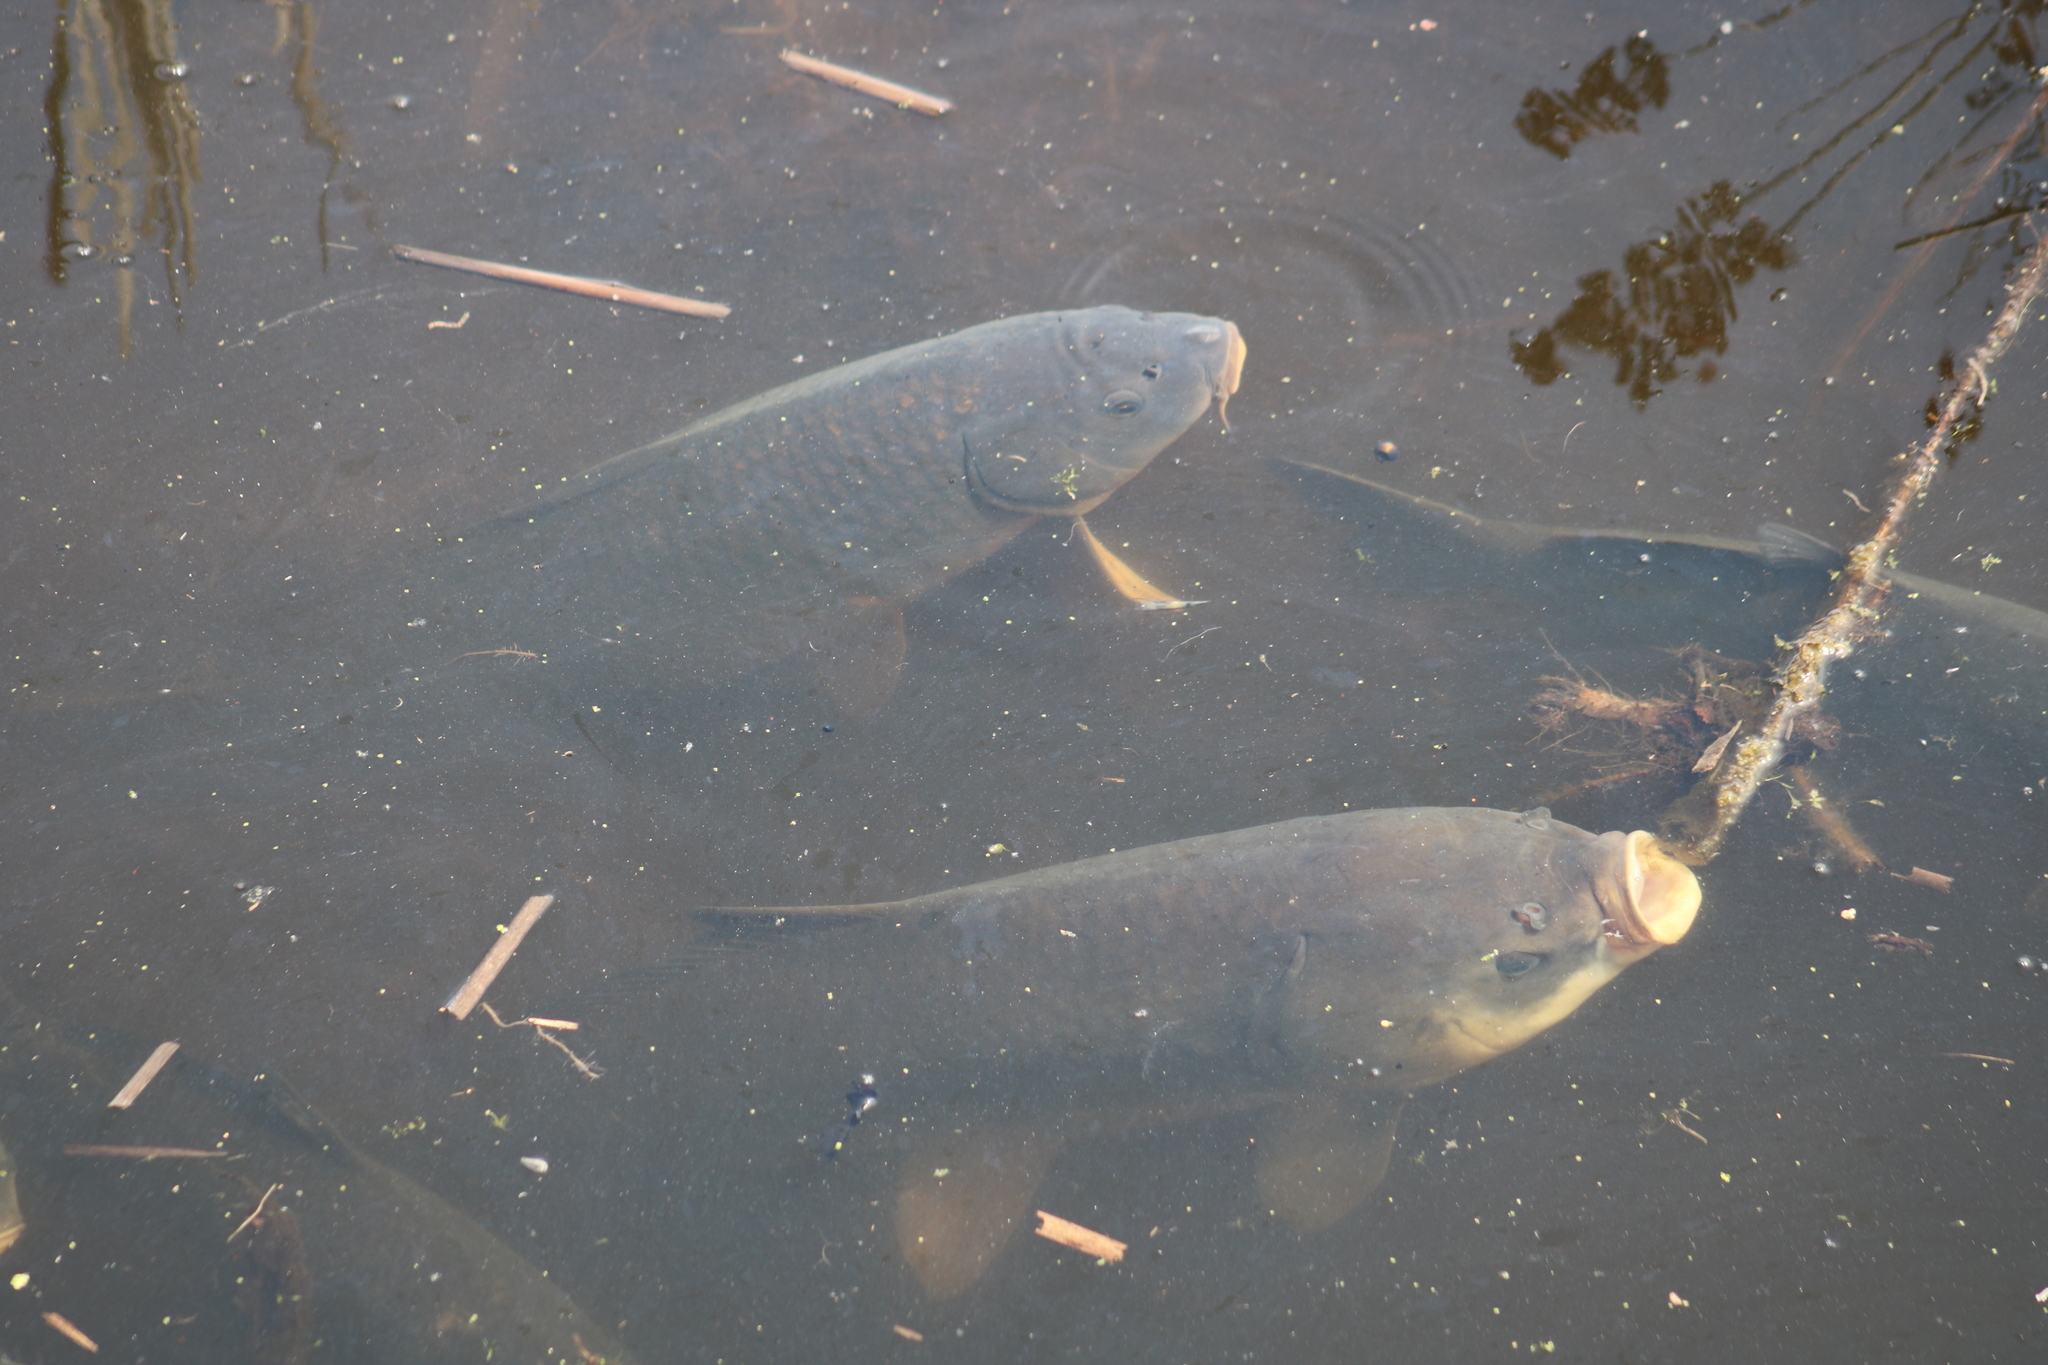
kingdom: Animalia
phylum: Chordata
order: Cypriniformes
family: Catostomidae
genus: Ictiobus
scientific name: Ictiobus cyprinellus
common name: Bigmouth buffalo
